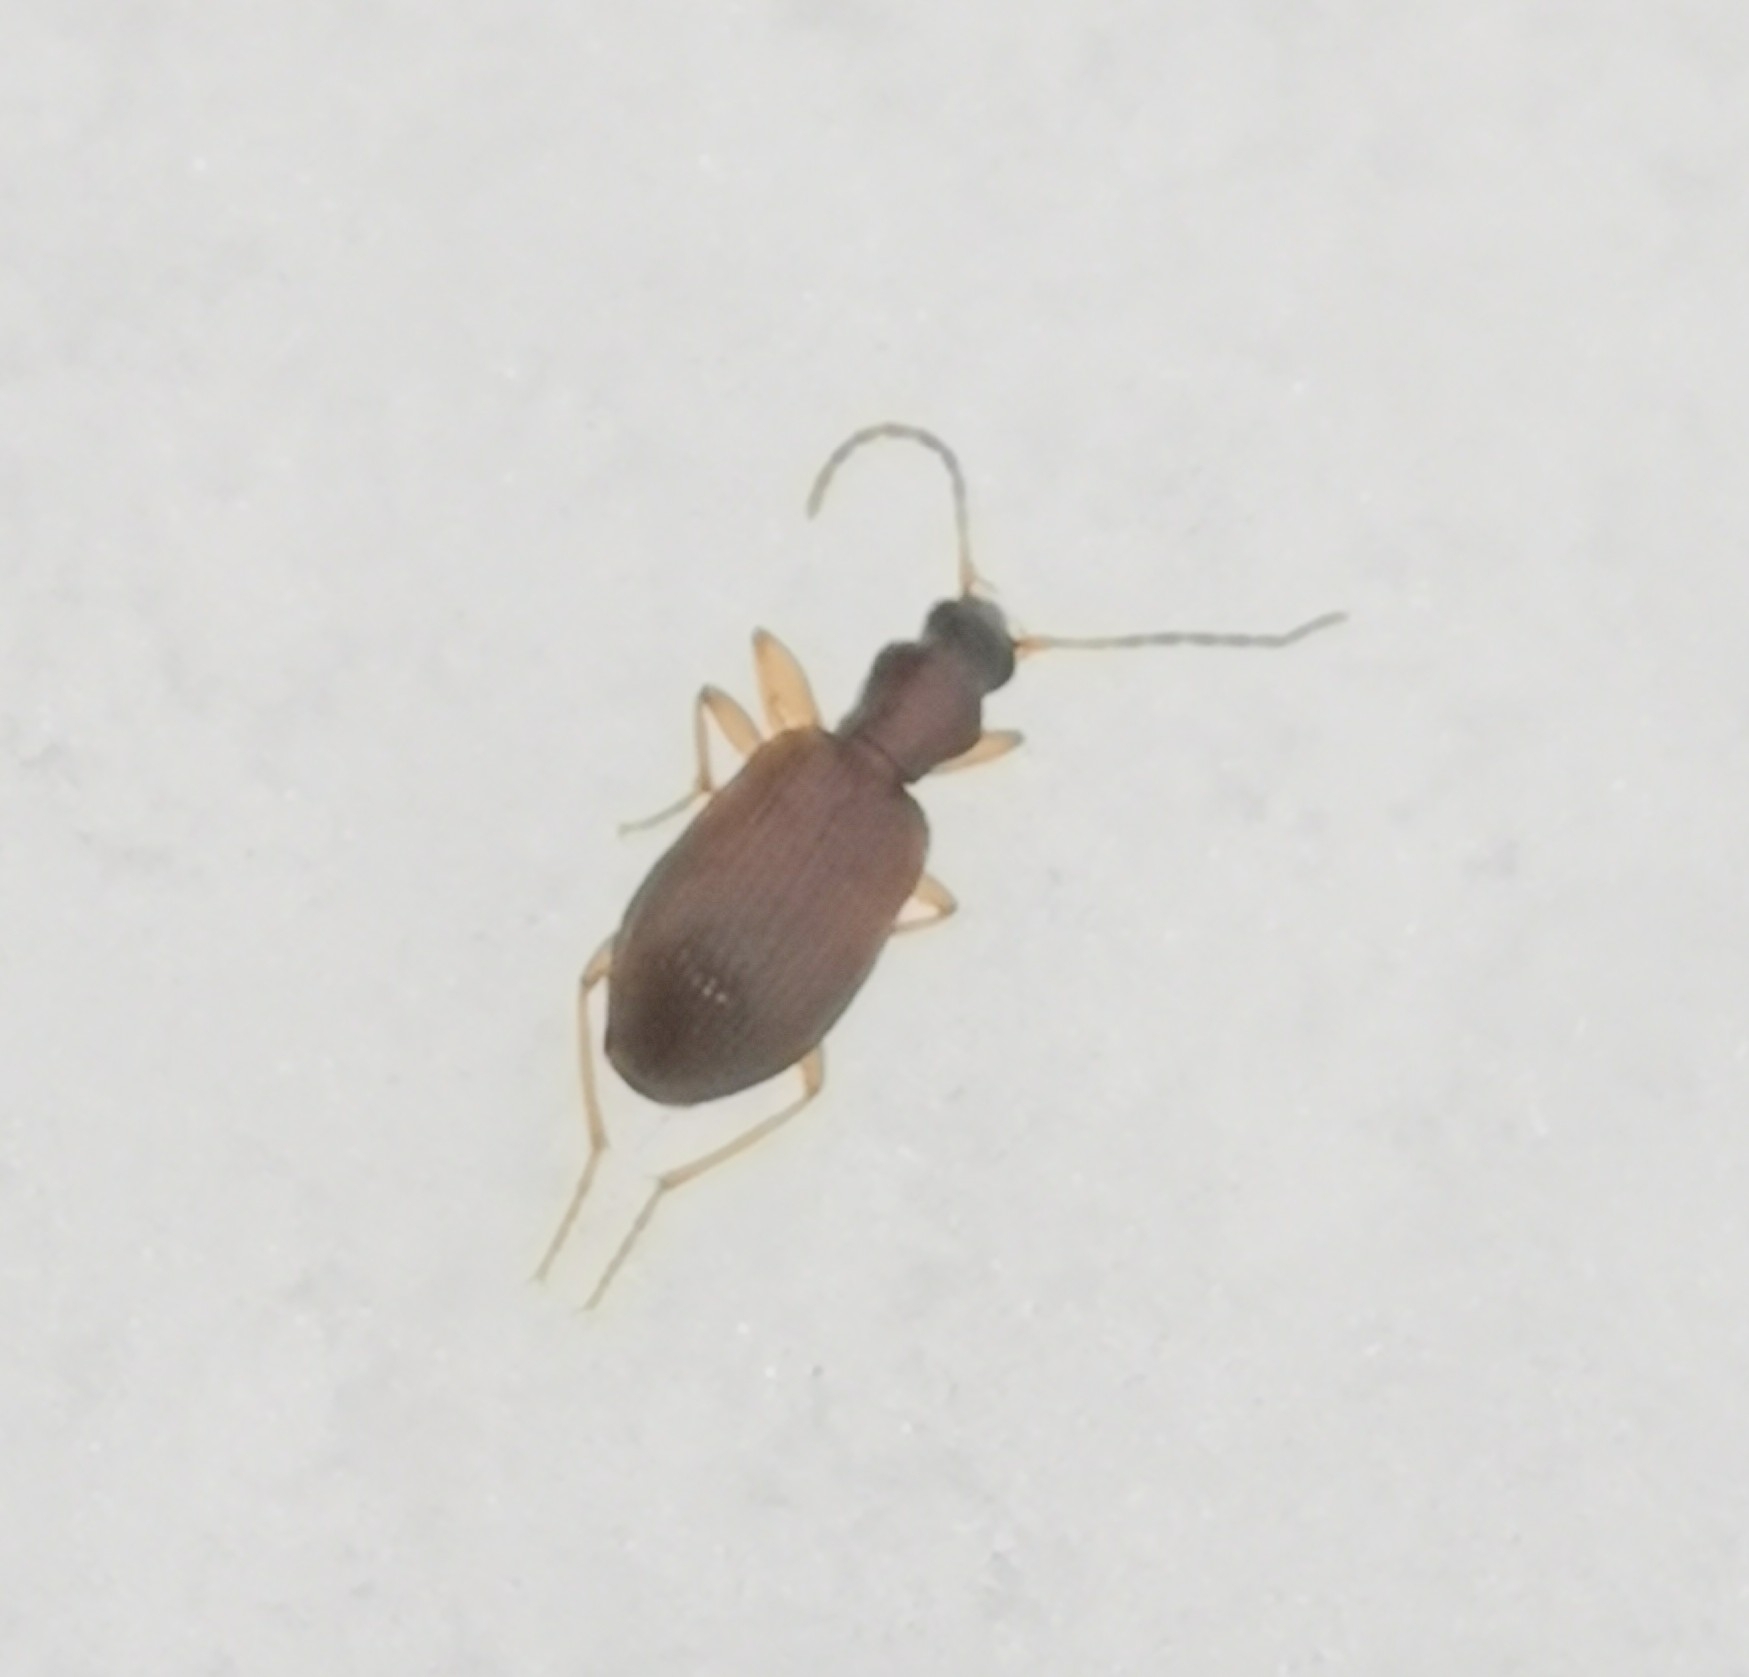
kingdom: Animalia
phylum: Arthropoda
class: Insecta
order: Coleoptera
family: Carabidae
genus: Oxypselaphus
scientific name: Oxypselaphus obscurus
